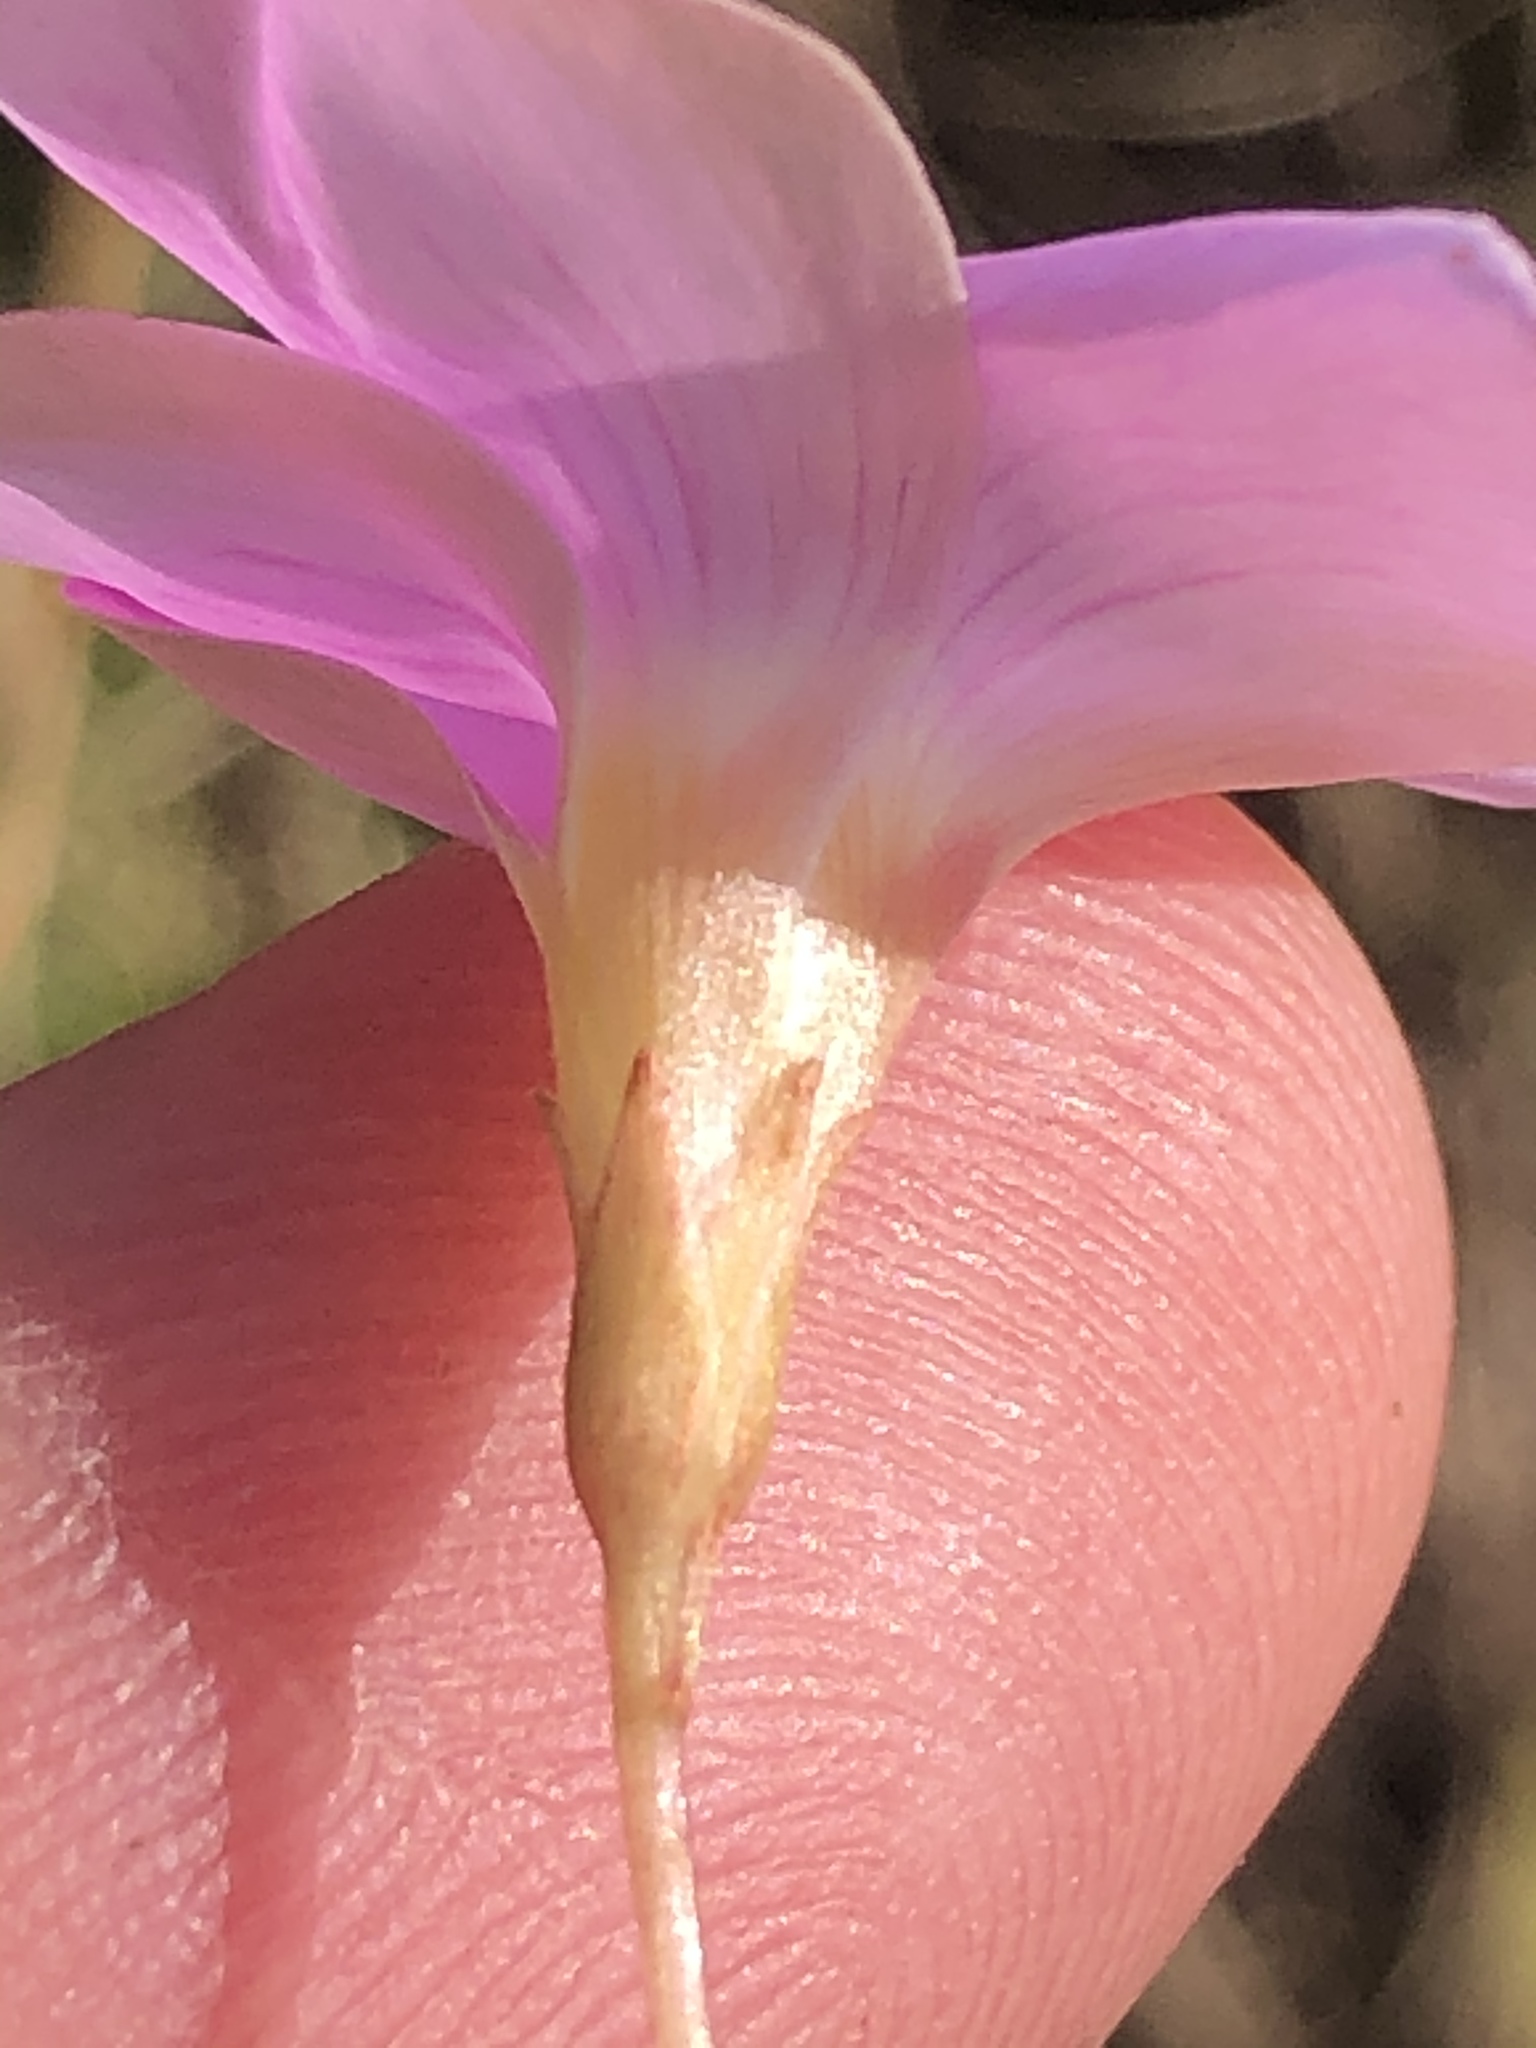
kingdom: Plantae
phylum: Tracheophyta
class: Magnoliopsida
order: Oxalidales
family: Oxalidaceae
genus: Oxalis
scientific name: Oxalis ciliaris
